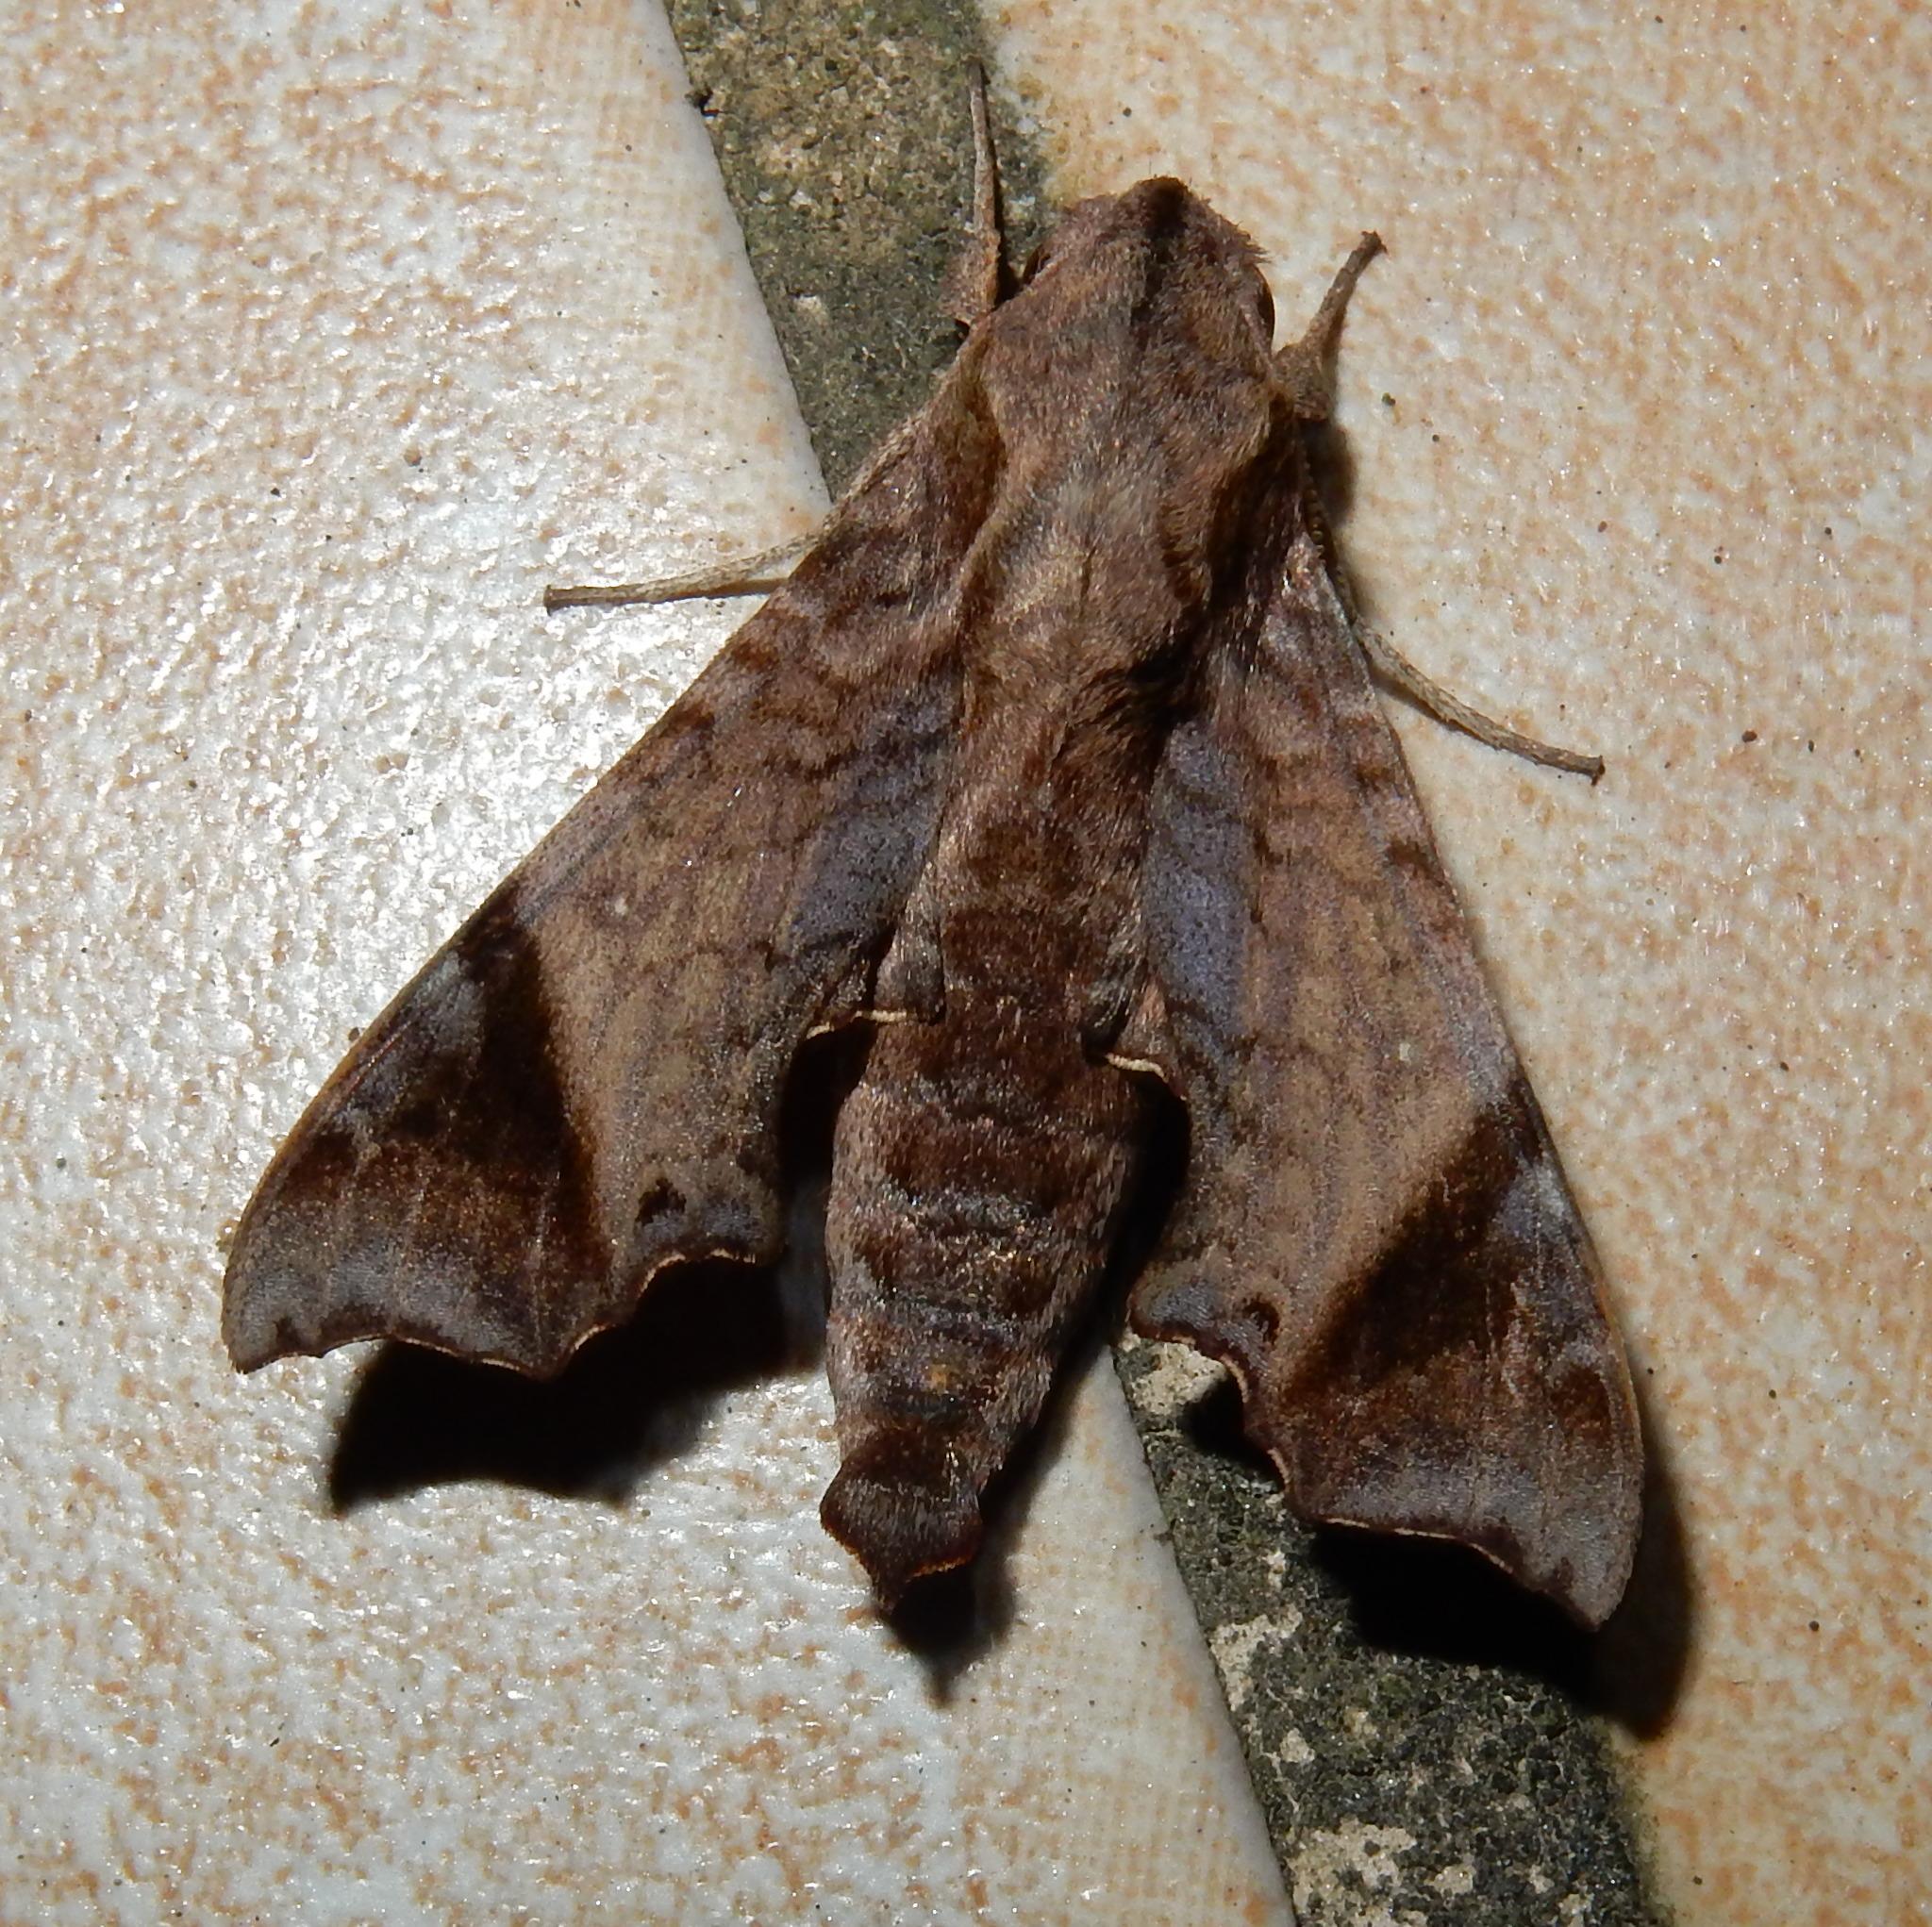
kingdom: Animalia
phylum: Arthropoda
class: Insecta
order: Lepidoptera
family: Sphingidae
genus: Temnora
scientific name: Temnora pylades
